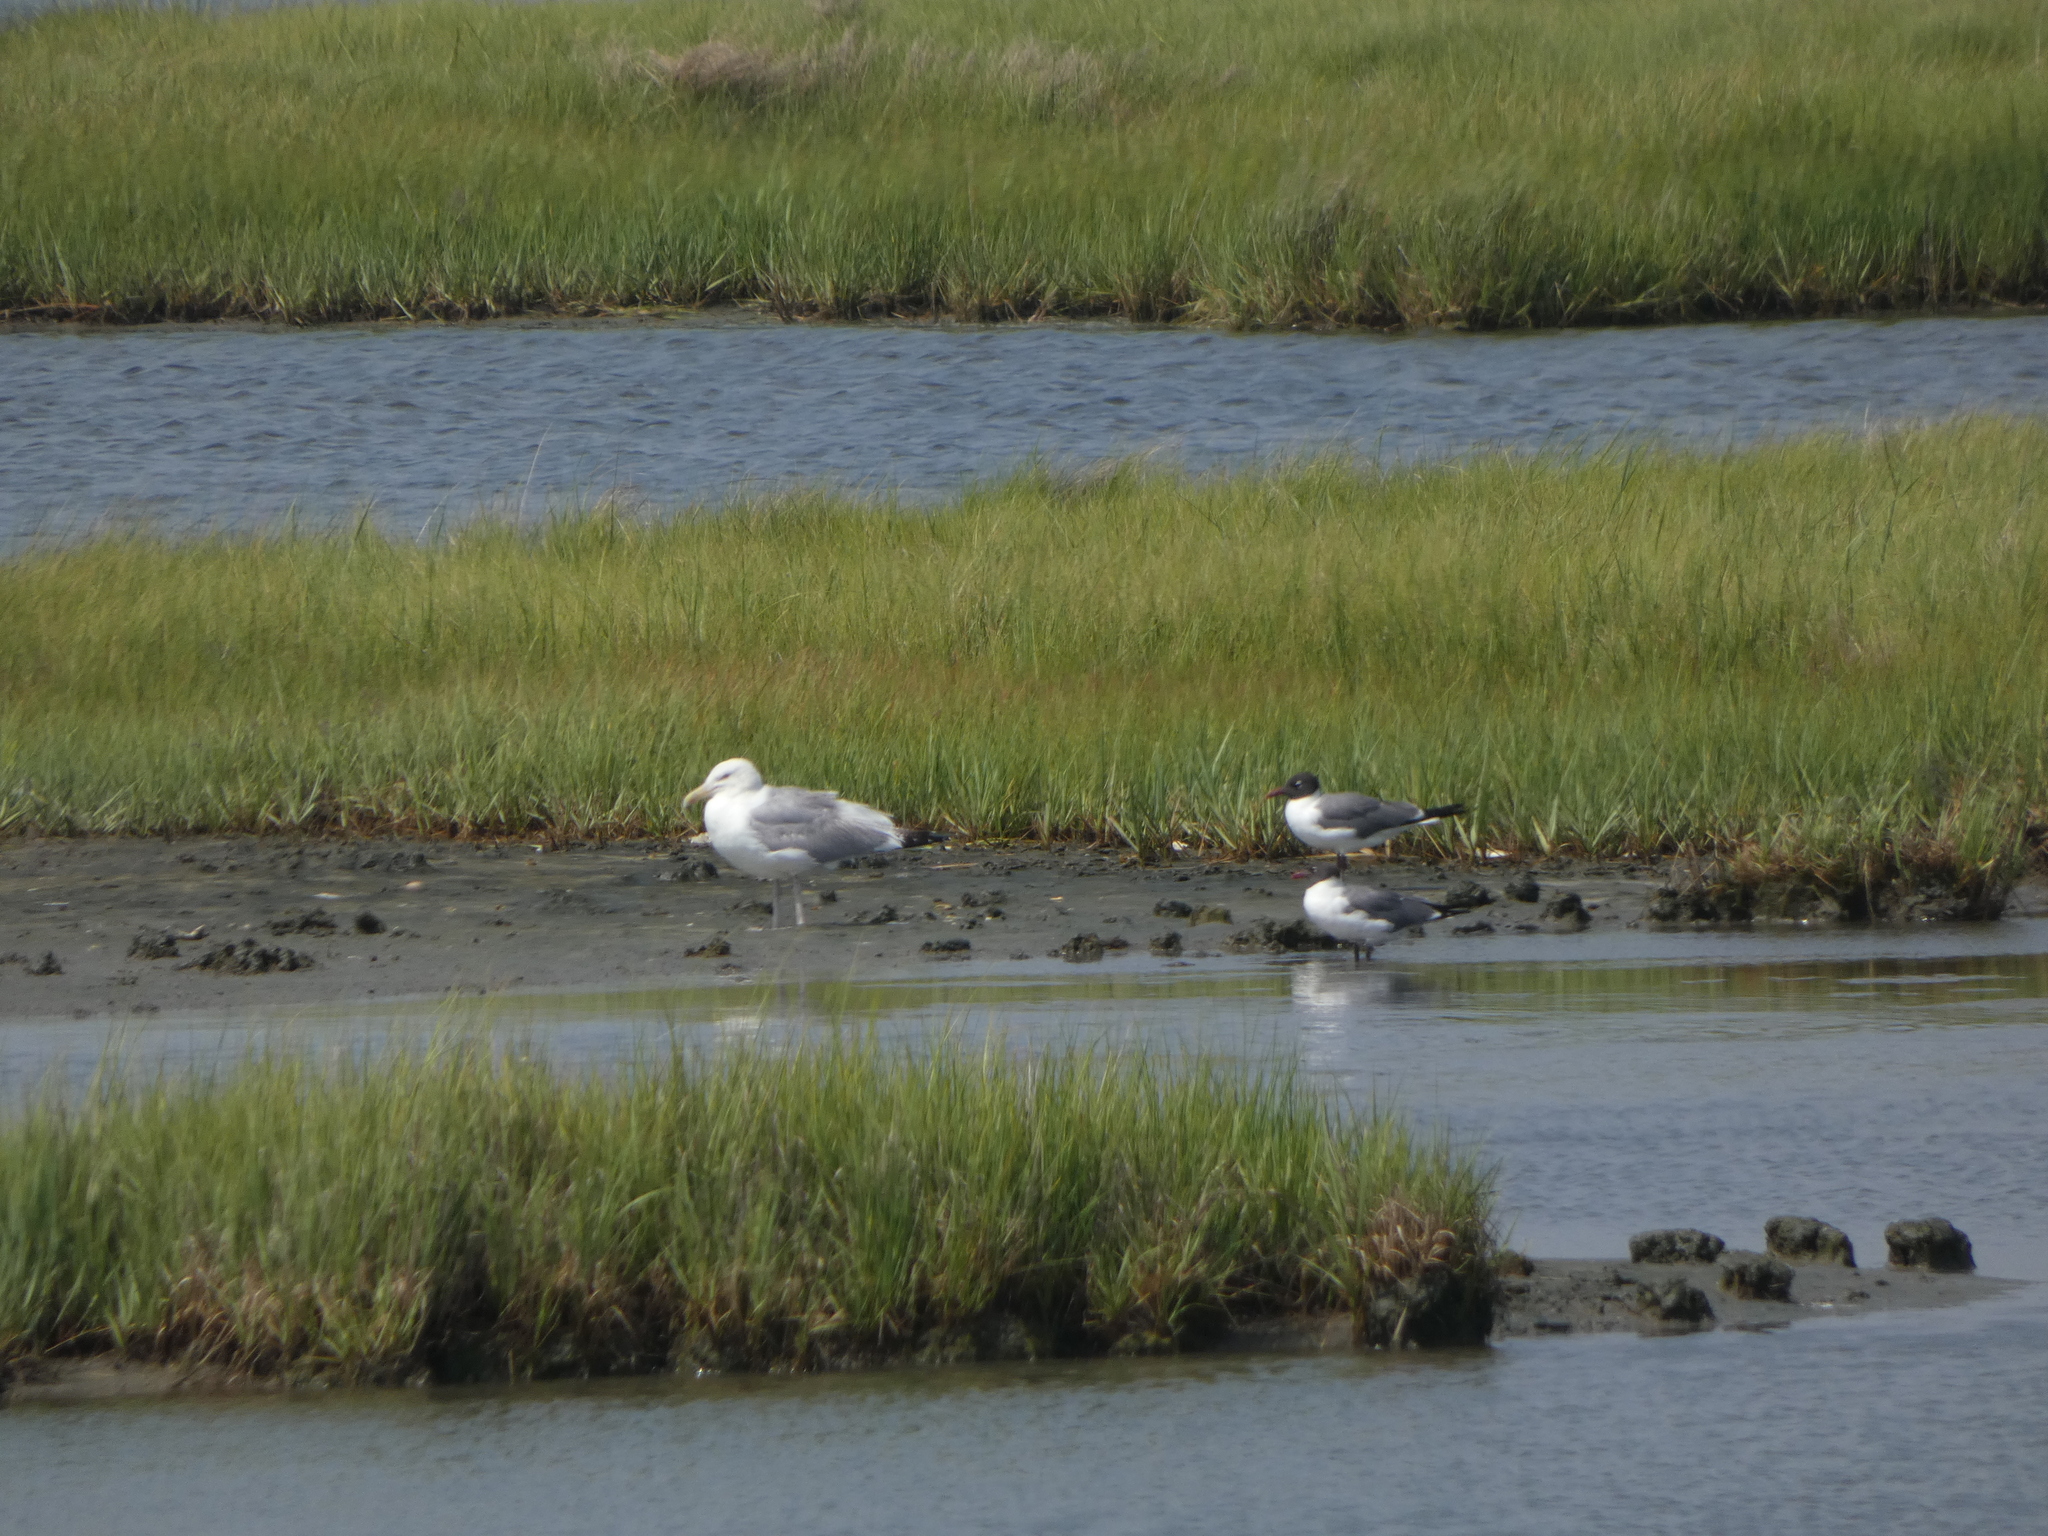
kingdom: Animalia
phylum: Chordata
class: Aves
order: Charadriiformes
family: Laridae
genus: Larus
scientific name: Larus argentatus
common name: Herring gull
